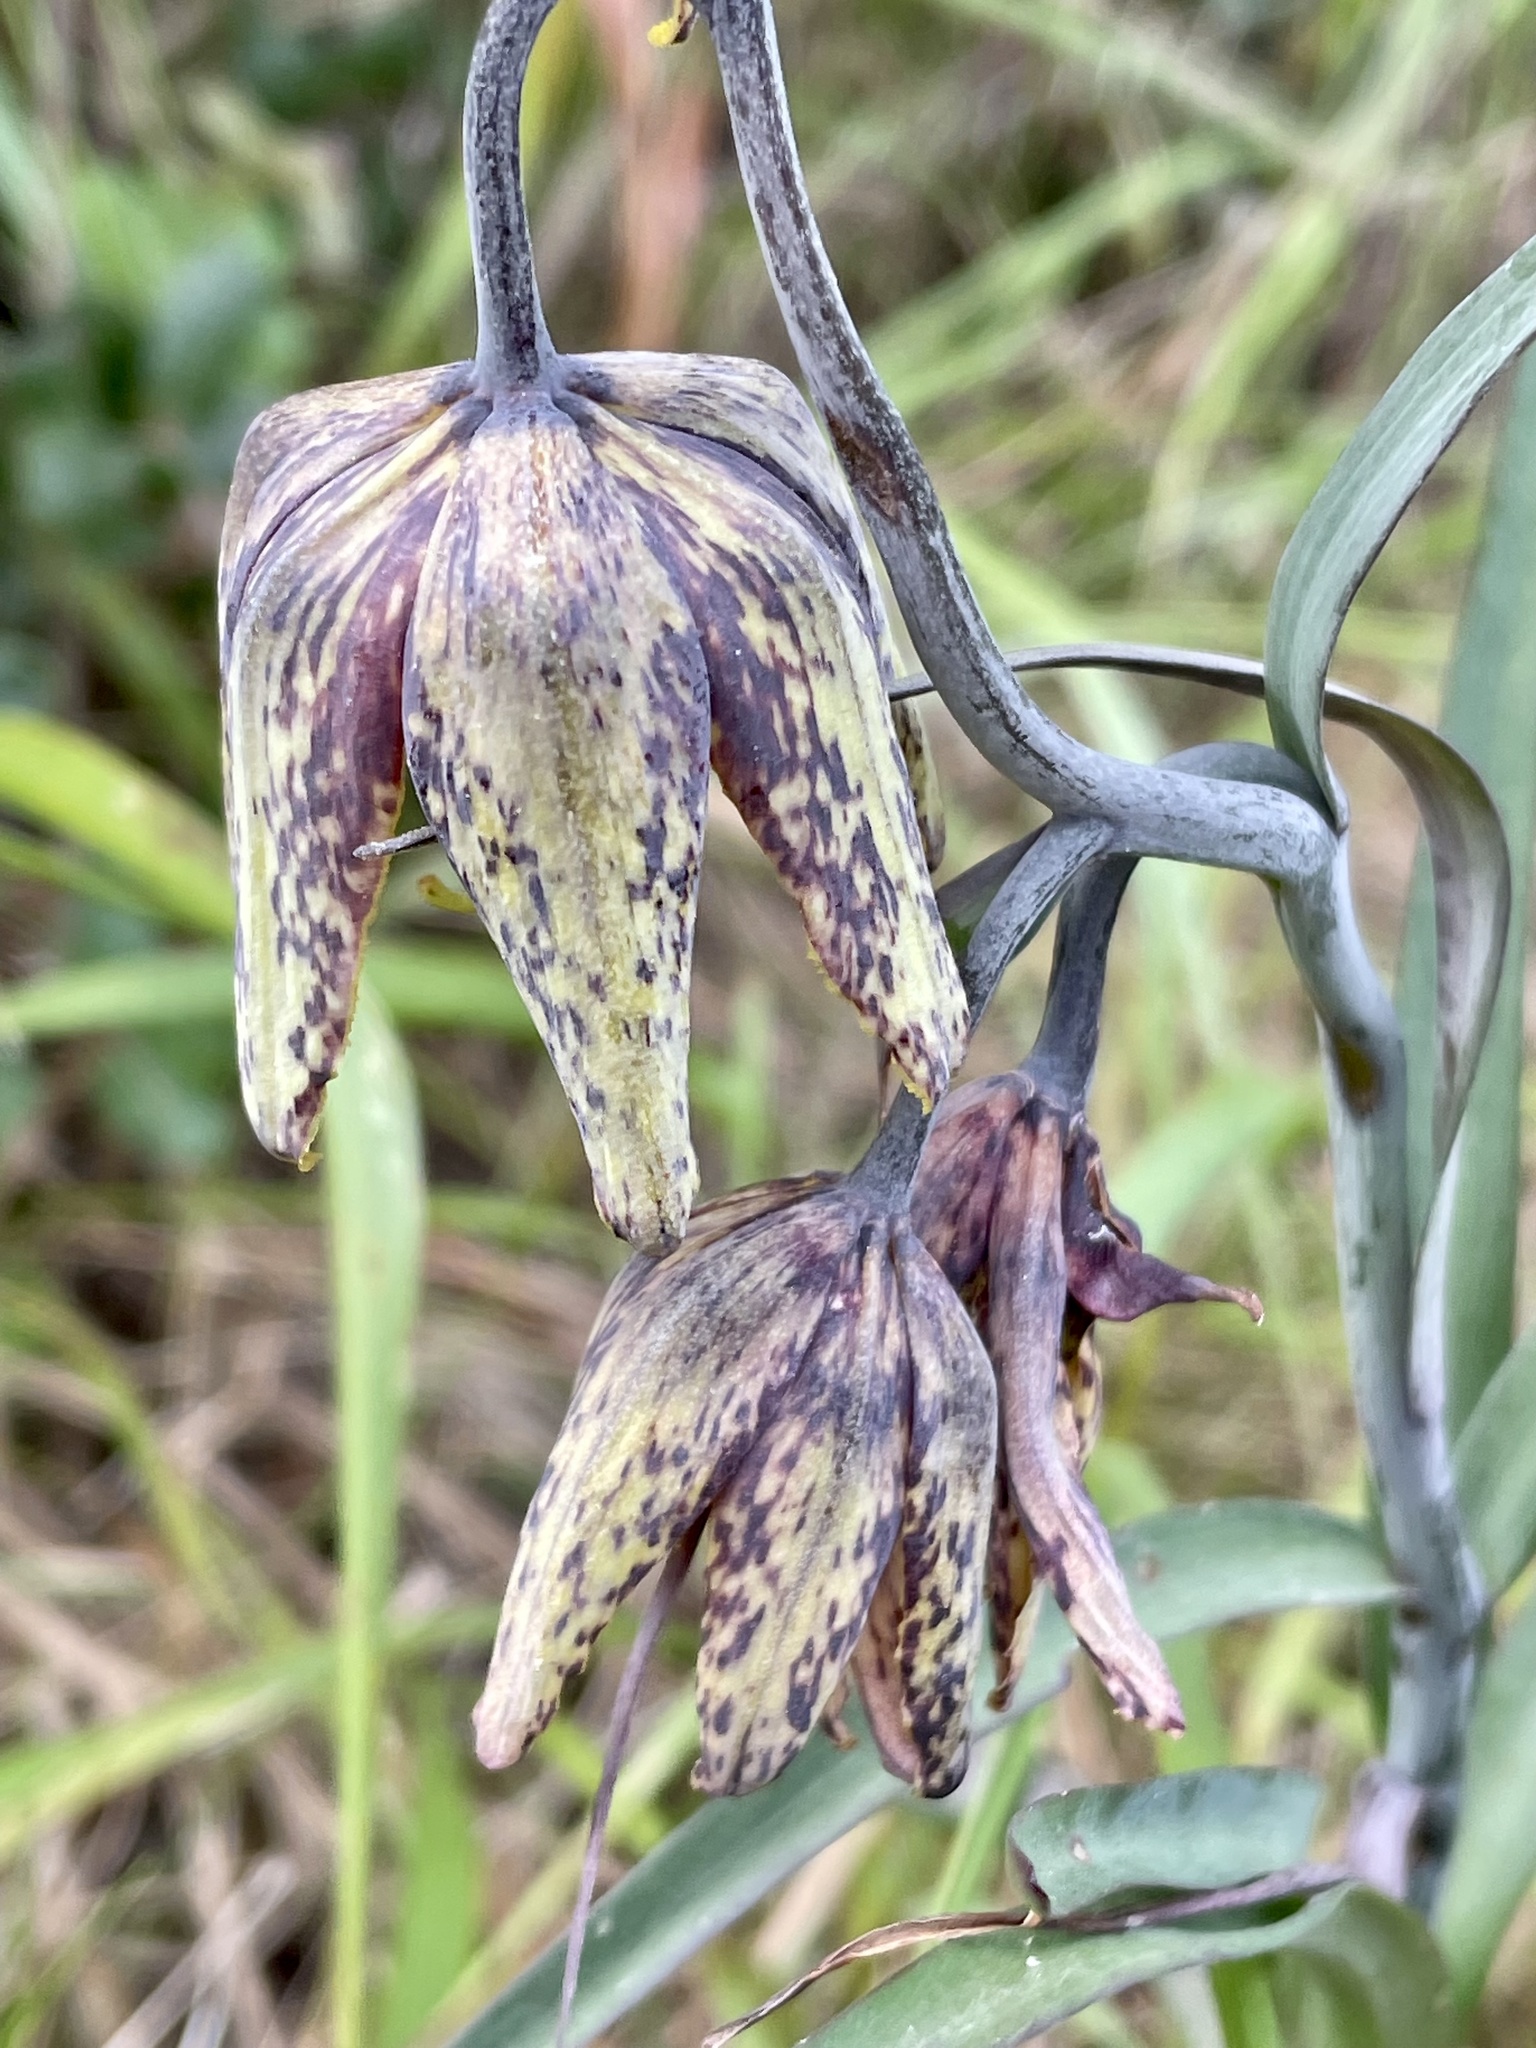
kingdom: Plantae
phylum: Tracheophyta
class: Liliopsida
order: Liliales
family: Liliaceae
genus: Fritillaria
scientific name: Fritillaria affinis
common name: Ojai fritillary
